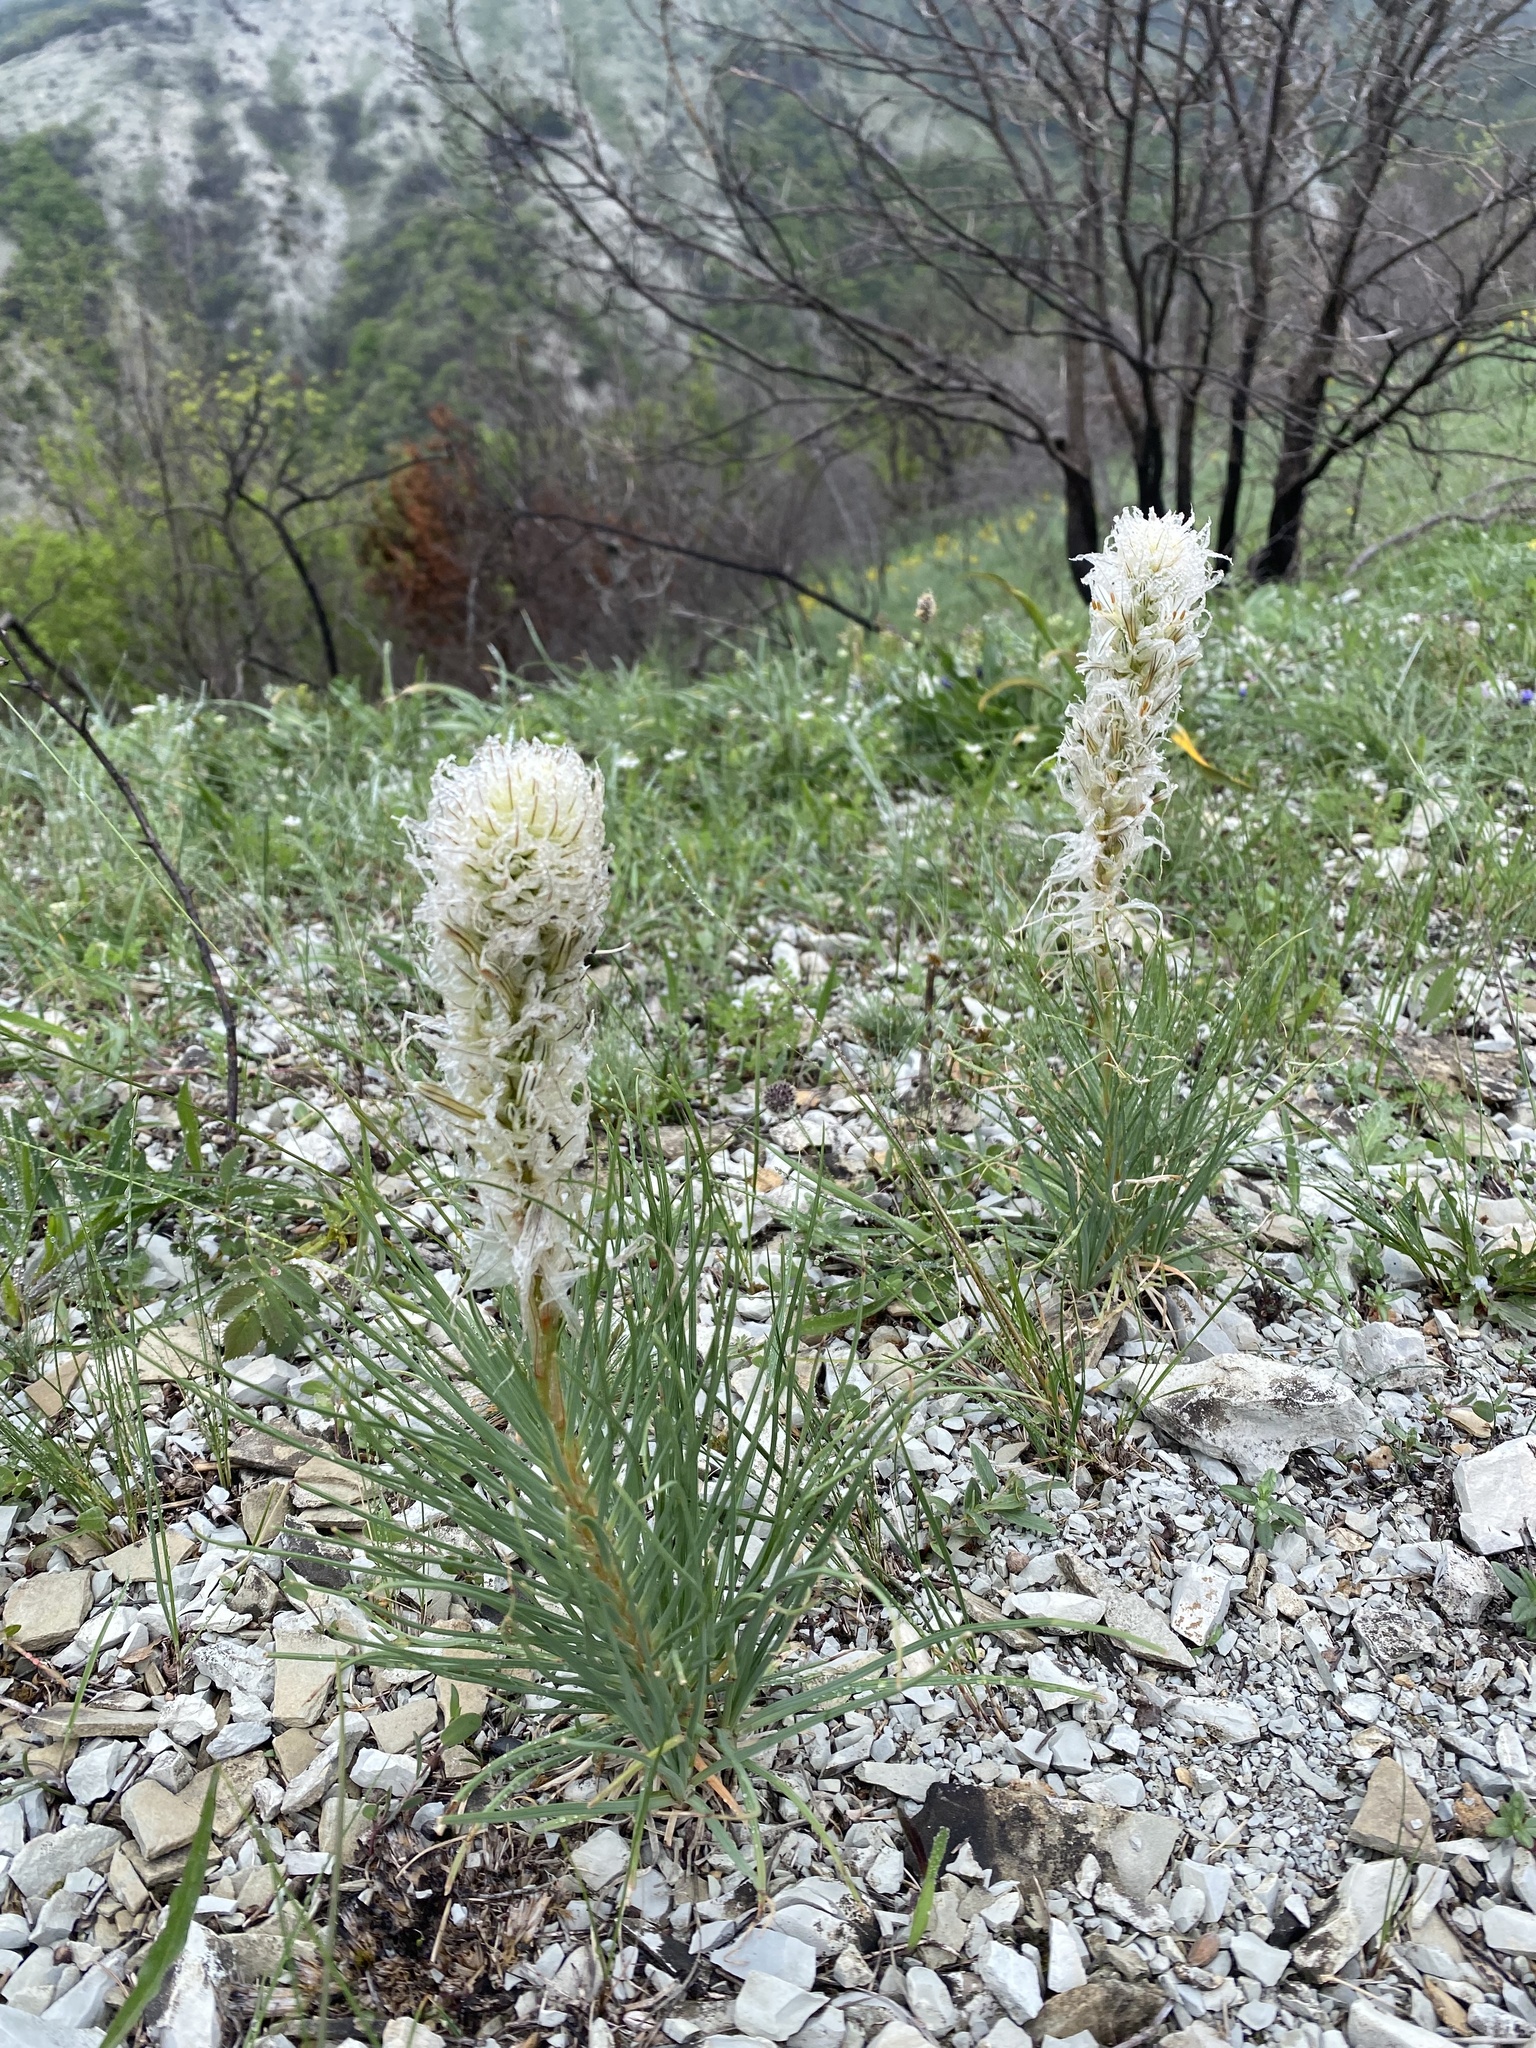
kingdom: Plantae
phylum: Tracheophyta
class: Liliopsida
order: Asparagales
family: Asphodelaceae
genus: Asphodeline
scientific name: Asphodeline taurica
